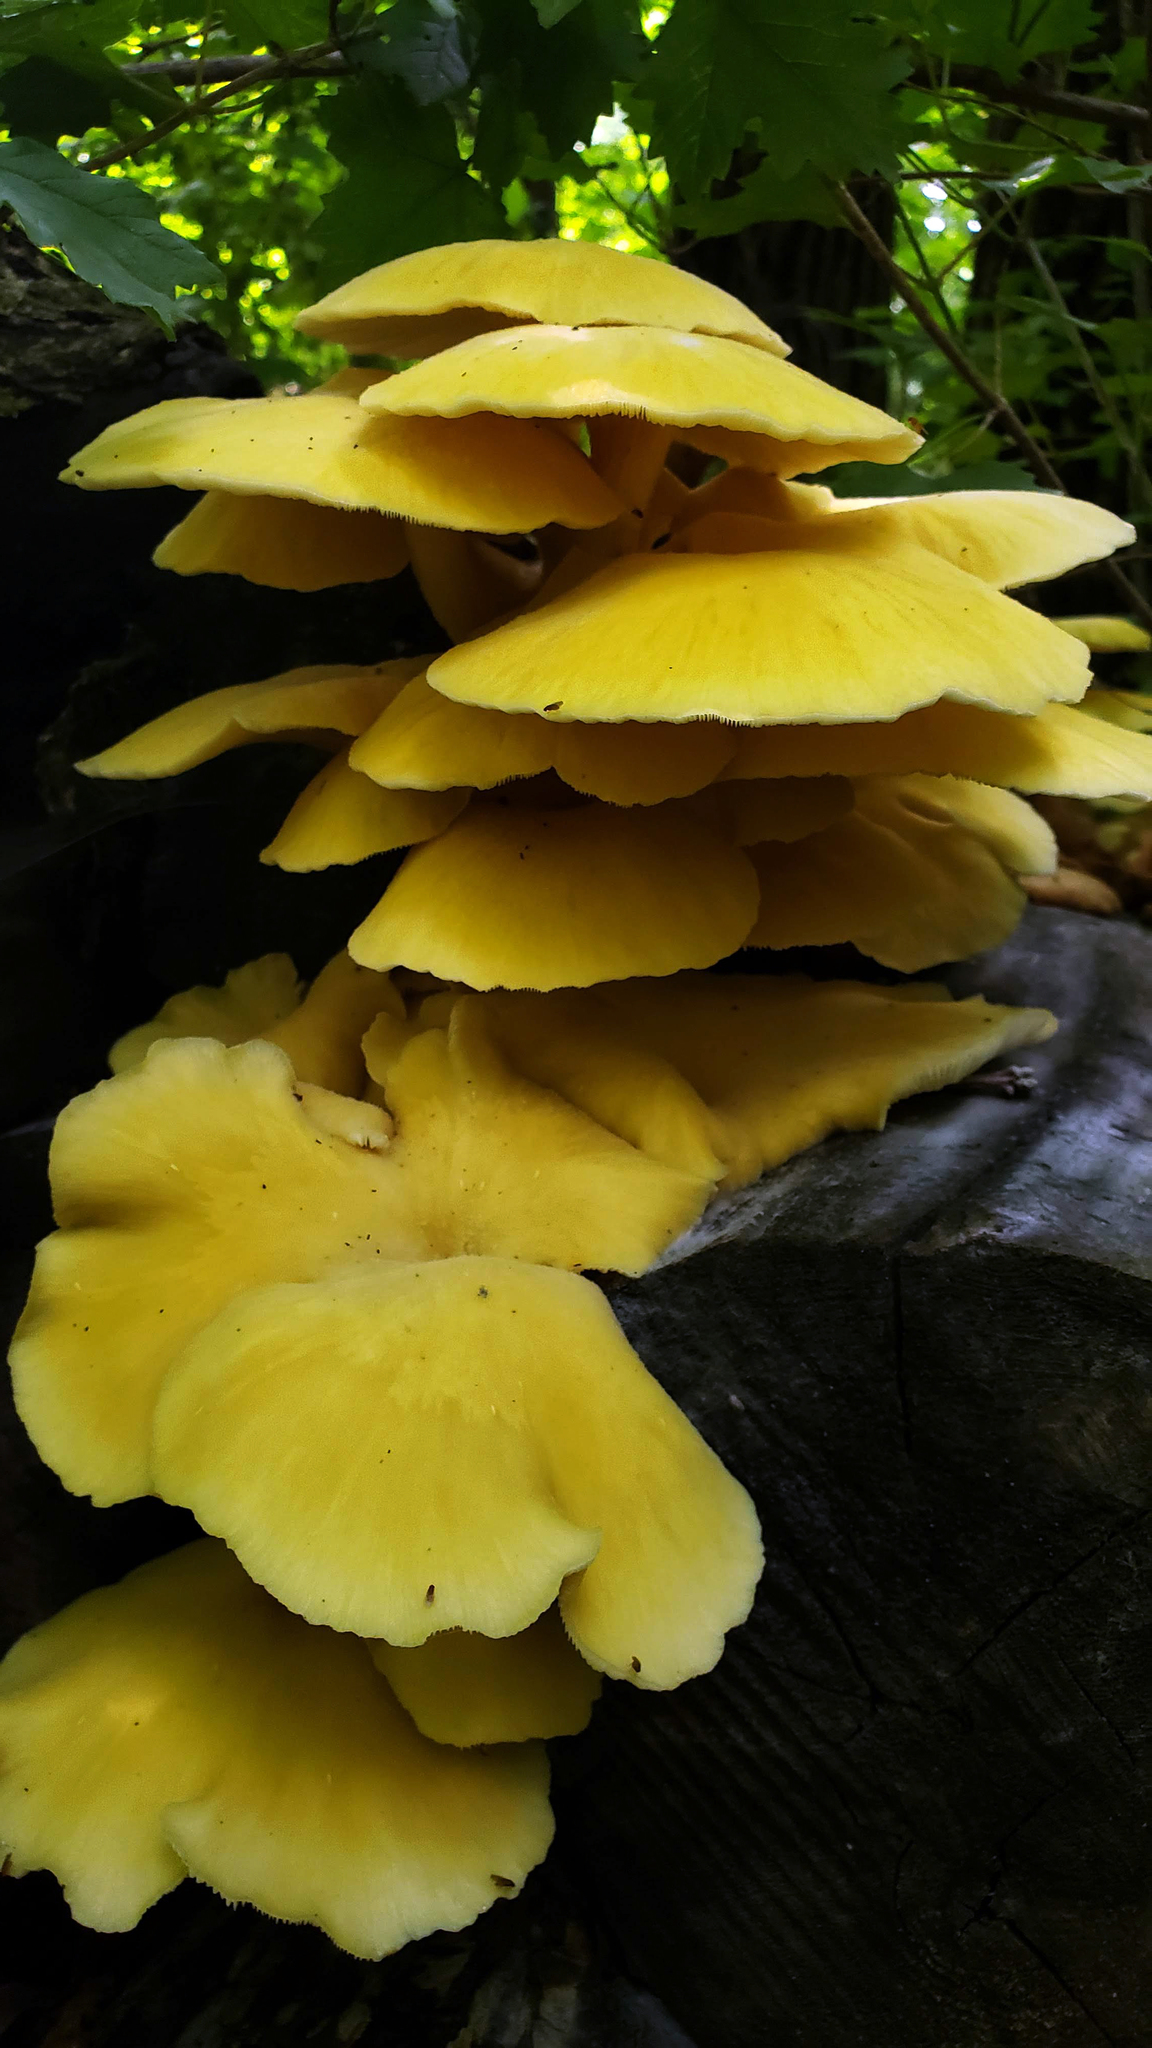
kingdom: Fungi
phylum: Basidiomycota
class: Agaricomycetes
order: Agaricales
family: Pleurotaceae
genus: Pleurotus
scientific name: Pleurotus citrinopileatus
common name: Golden oyster mushroom
